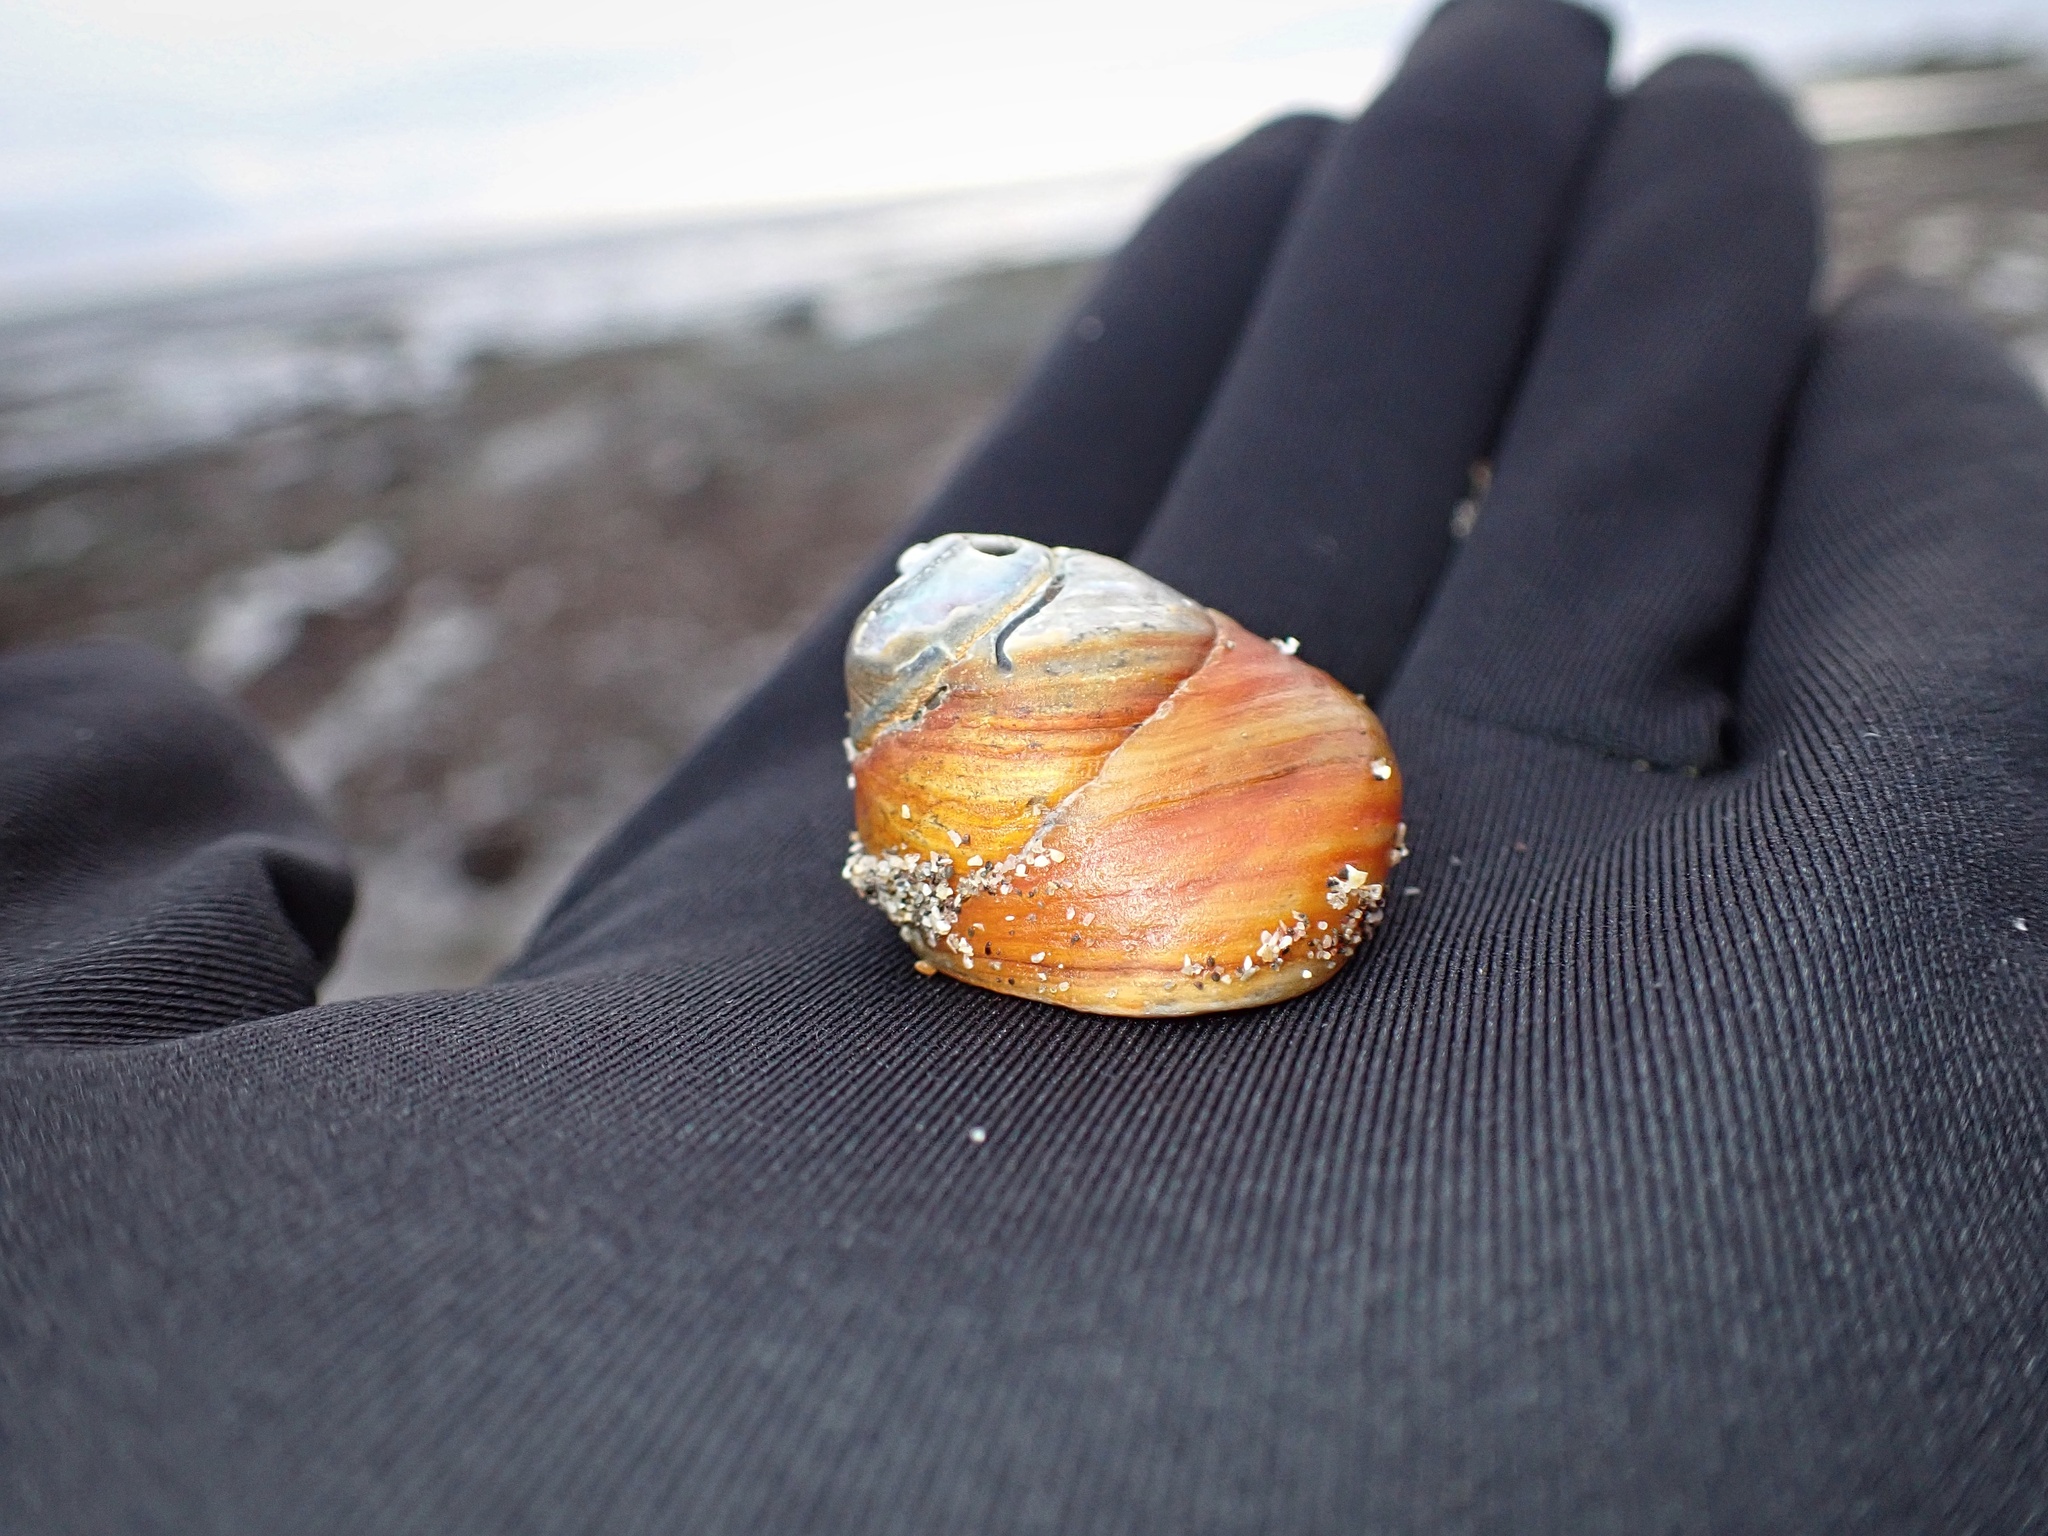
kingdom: Animalia
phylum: Mollusca
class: Gastropoda
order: Trochida
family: Tegulidae
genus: Tegula
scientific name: Tegula brunnea
